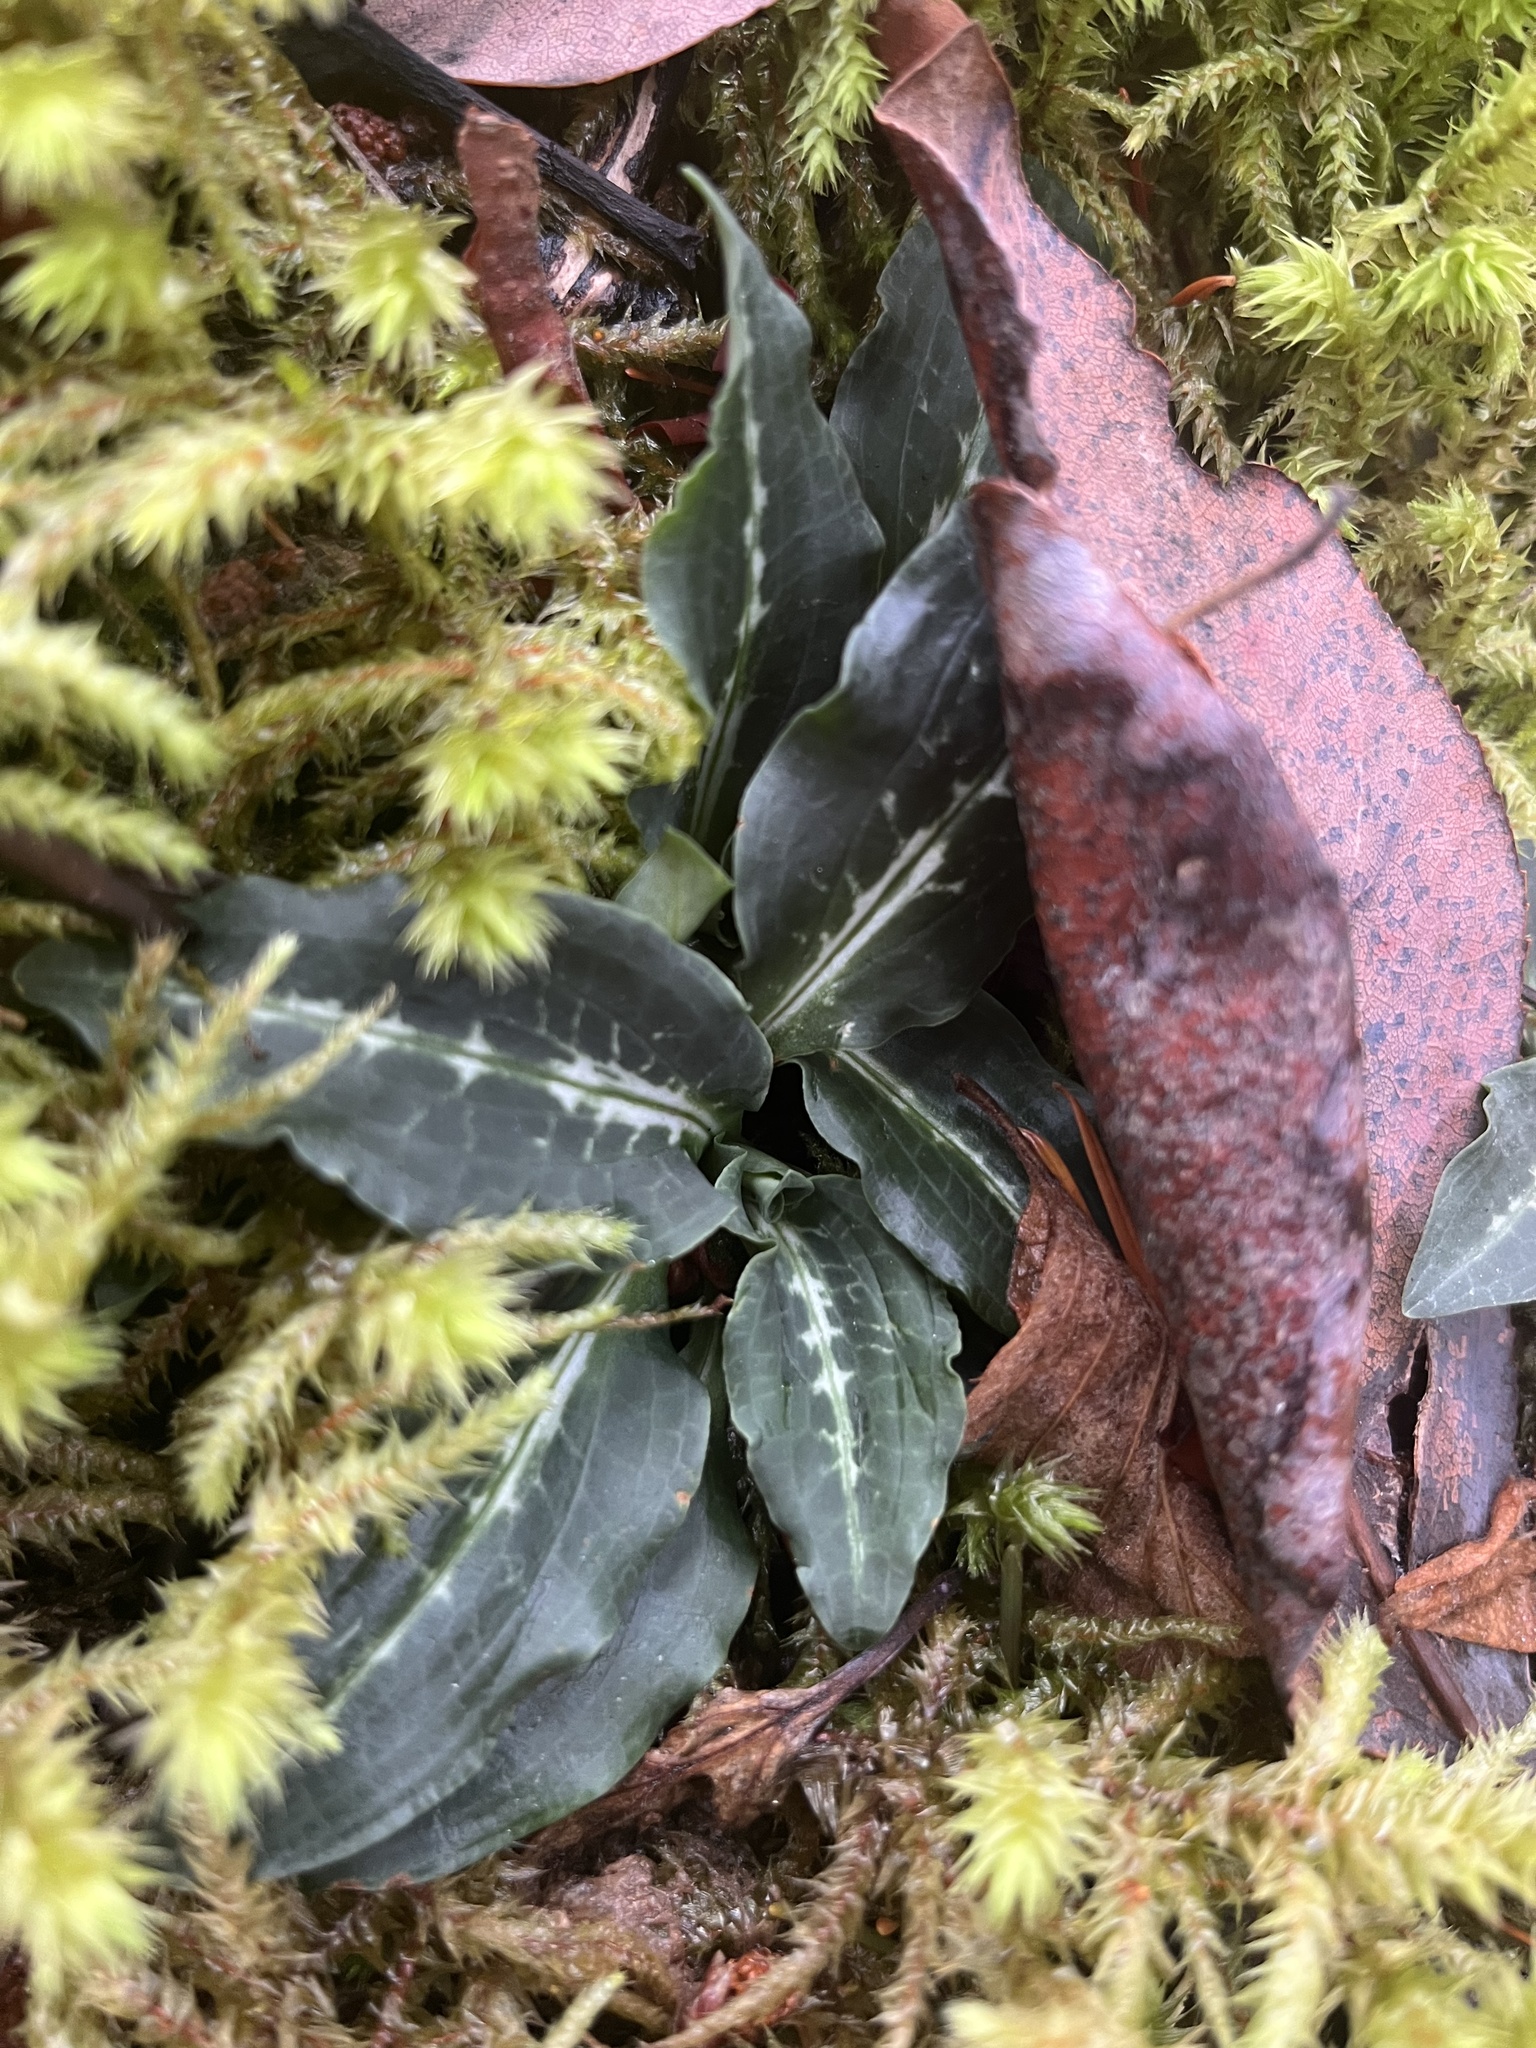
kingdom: Plantae
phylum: Tracheophyta
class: Liliopsida
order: Asparagales
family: Orchidaceae
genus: Goodyera
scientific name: Goodyera oblongifolia
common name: Giant rattlesnake-plantain
